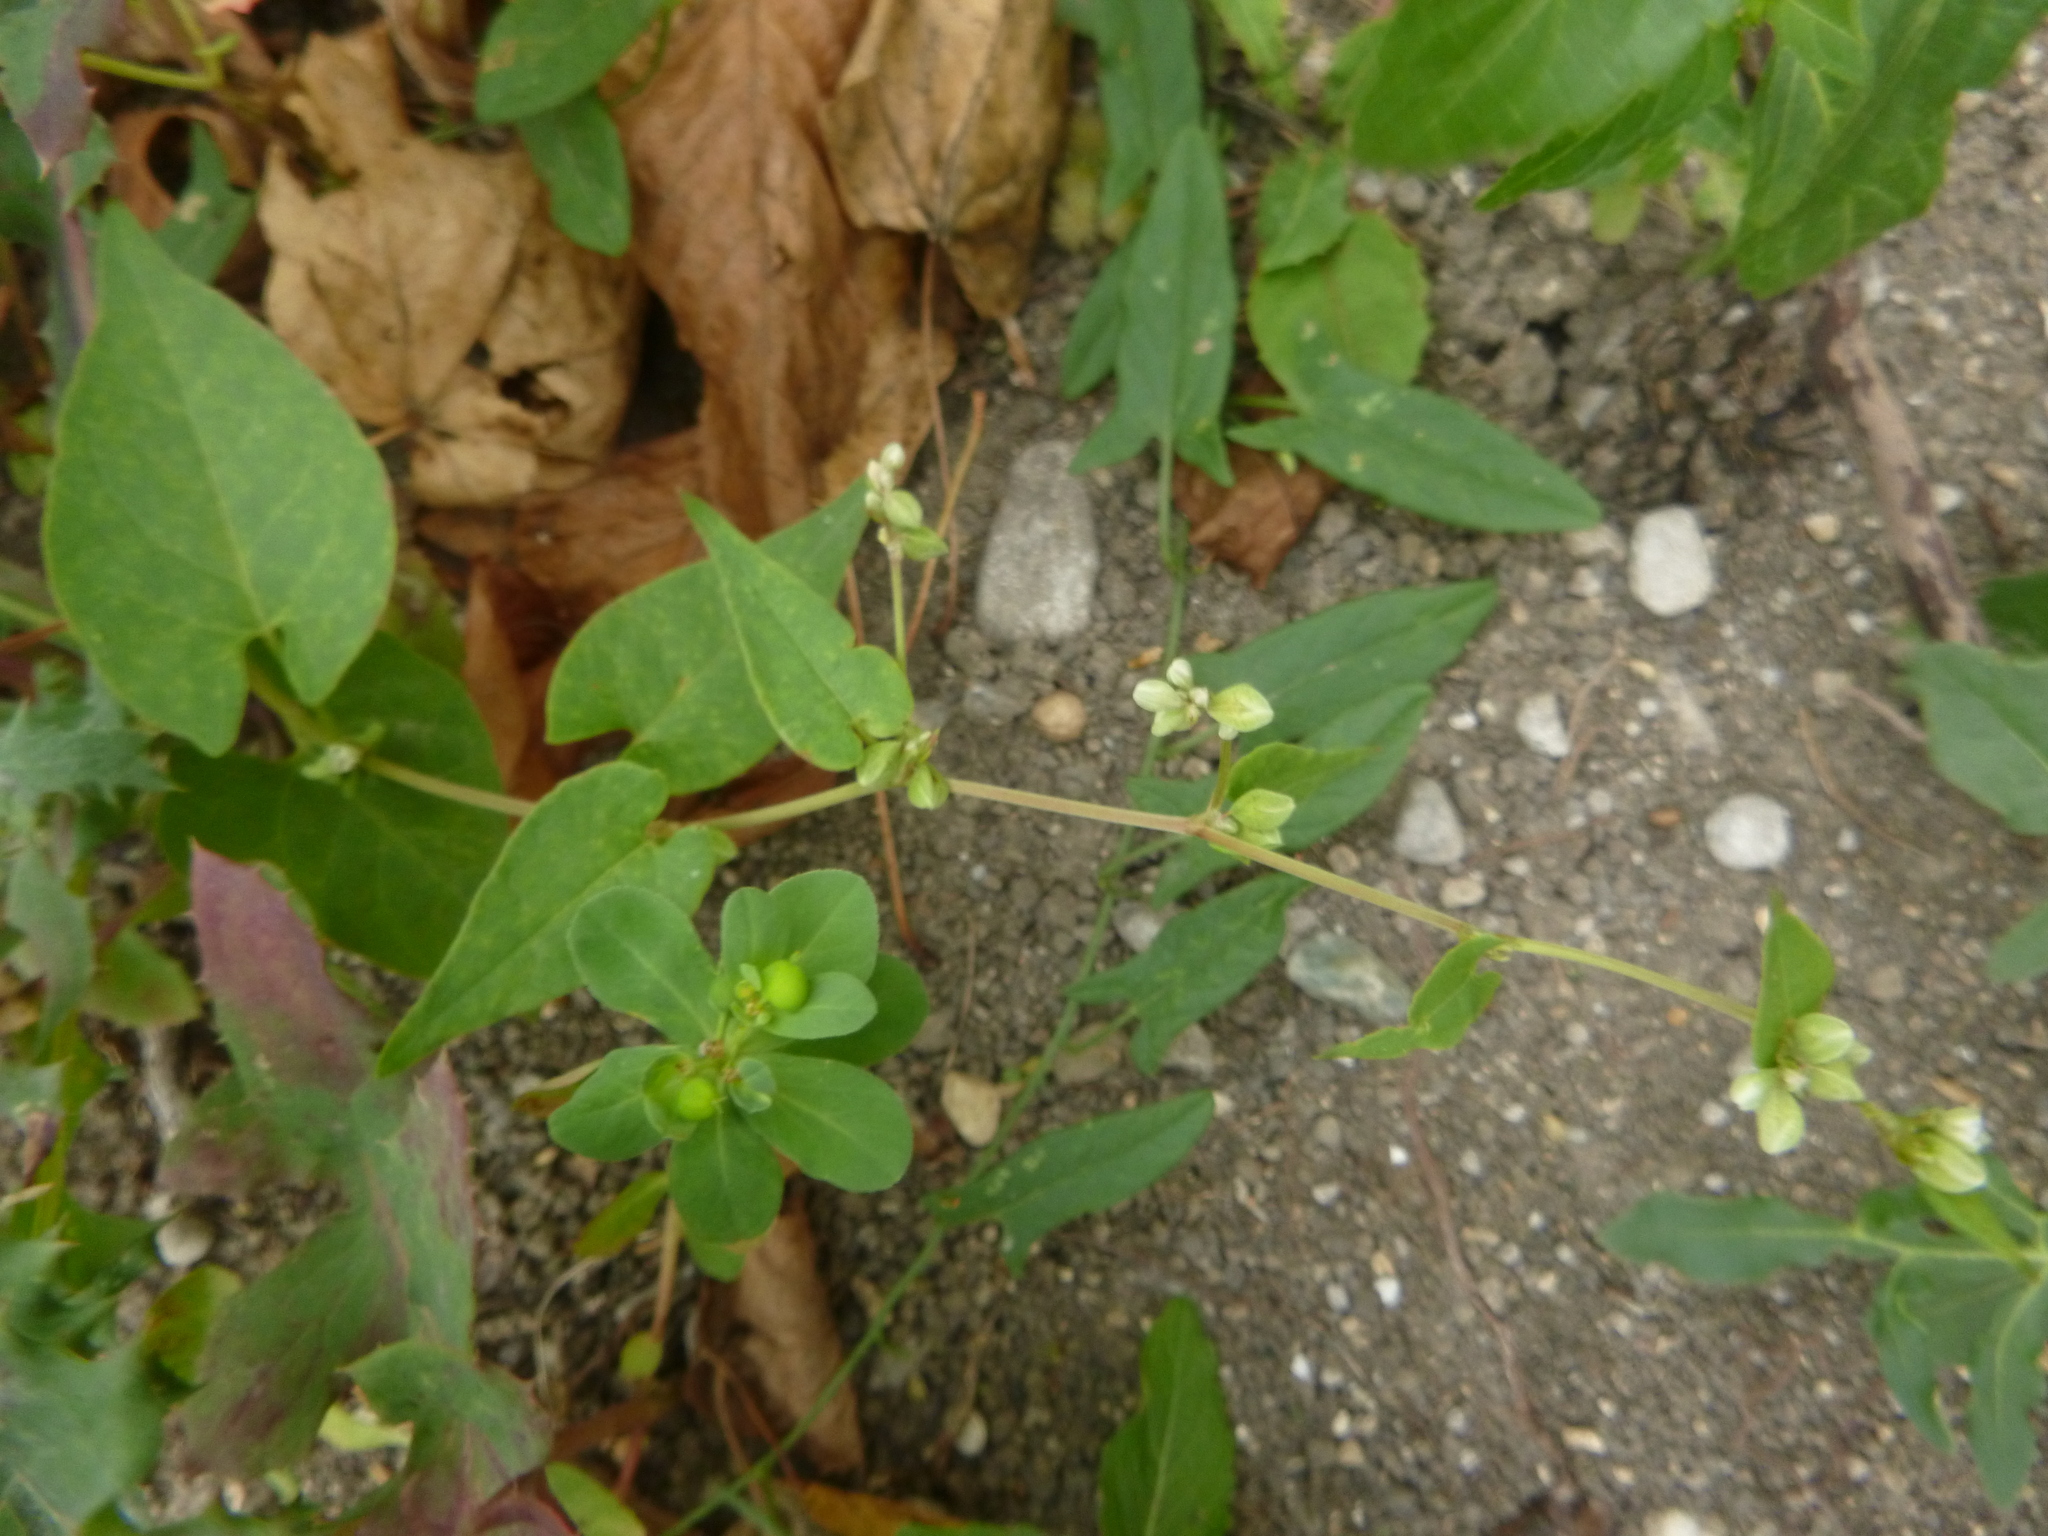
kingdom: Plantae
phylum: Tracheophyta
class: Magnoliopsida
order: Caryophyllales
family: Polygonaceae
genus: Fallopia
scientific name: Fallopia convolvulus
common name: Black bindweed
